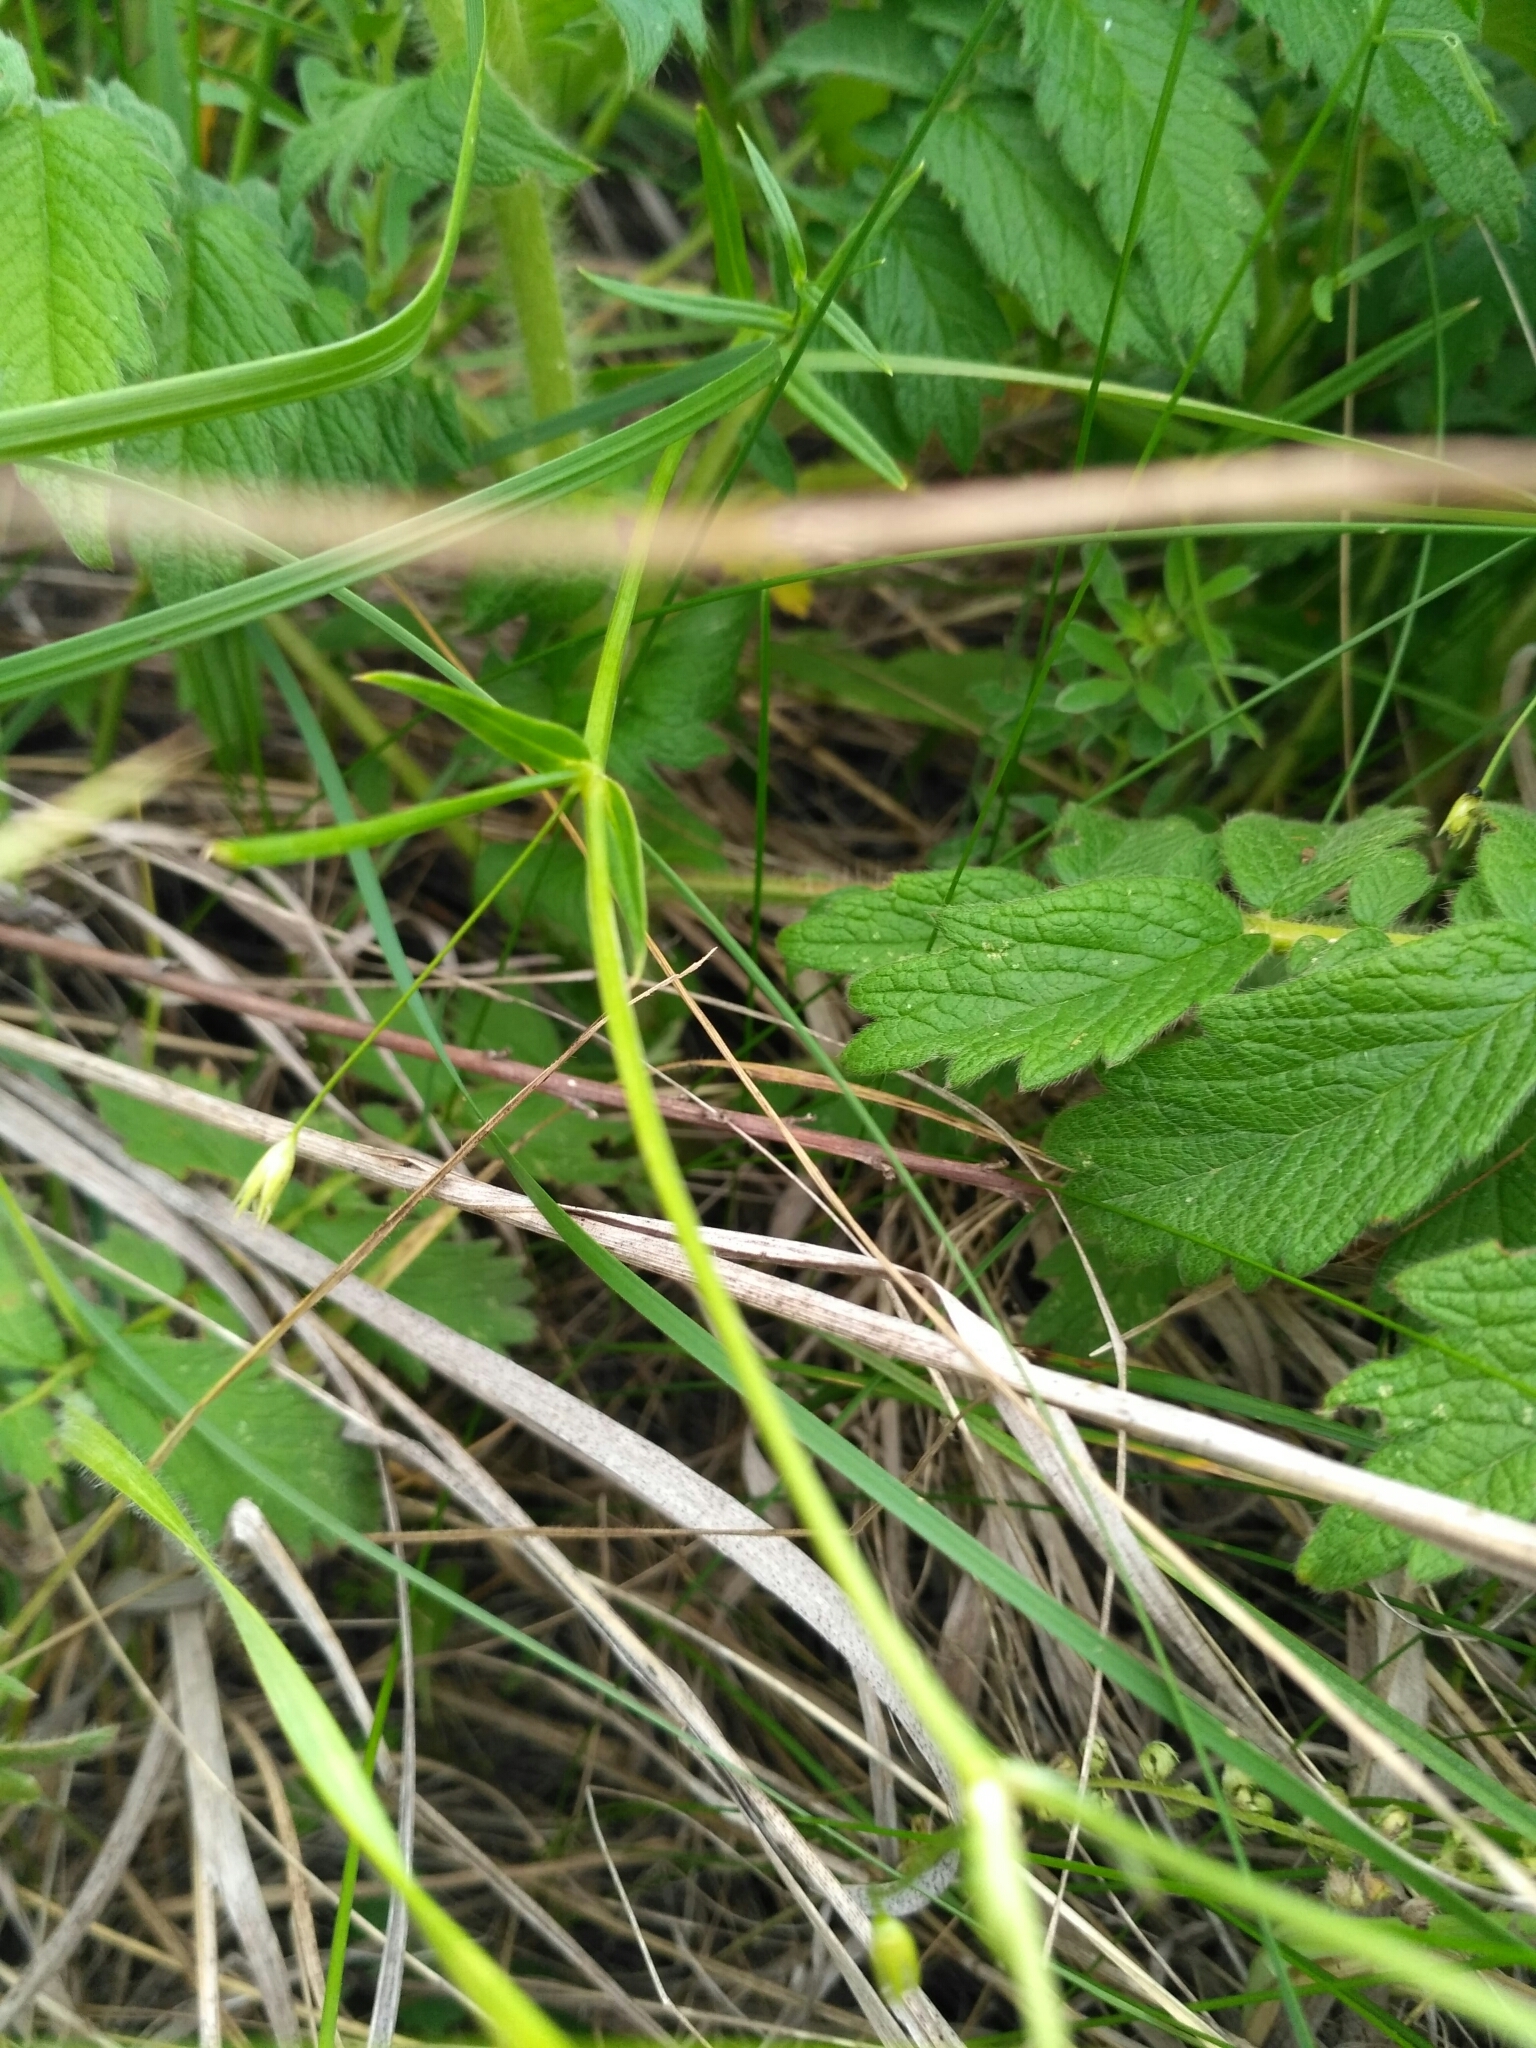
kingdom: Plantae
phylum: Tracheophyta
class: Magnoliopsida
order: Caryophyllales
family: Caryophyllaceae
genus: Stellaria
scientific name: Stellaria graminea
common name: Grass-like starwort
